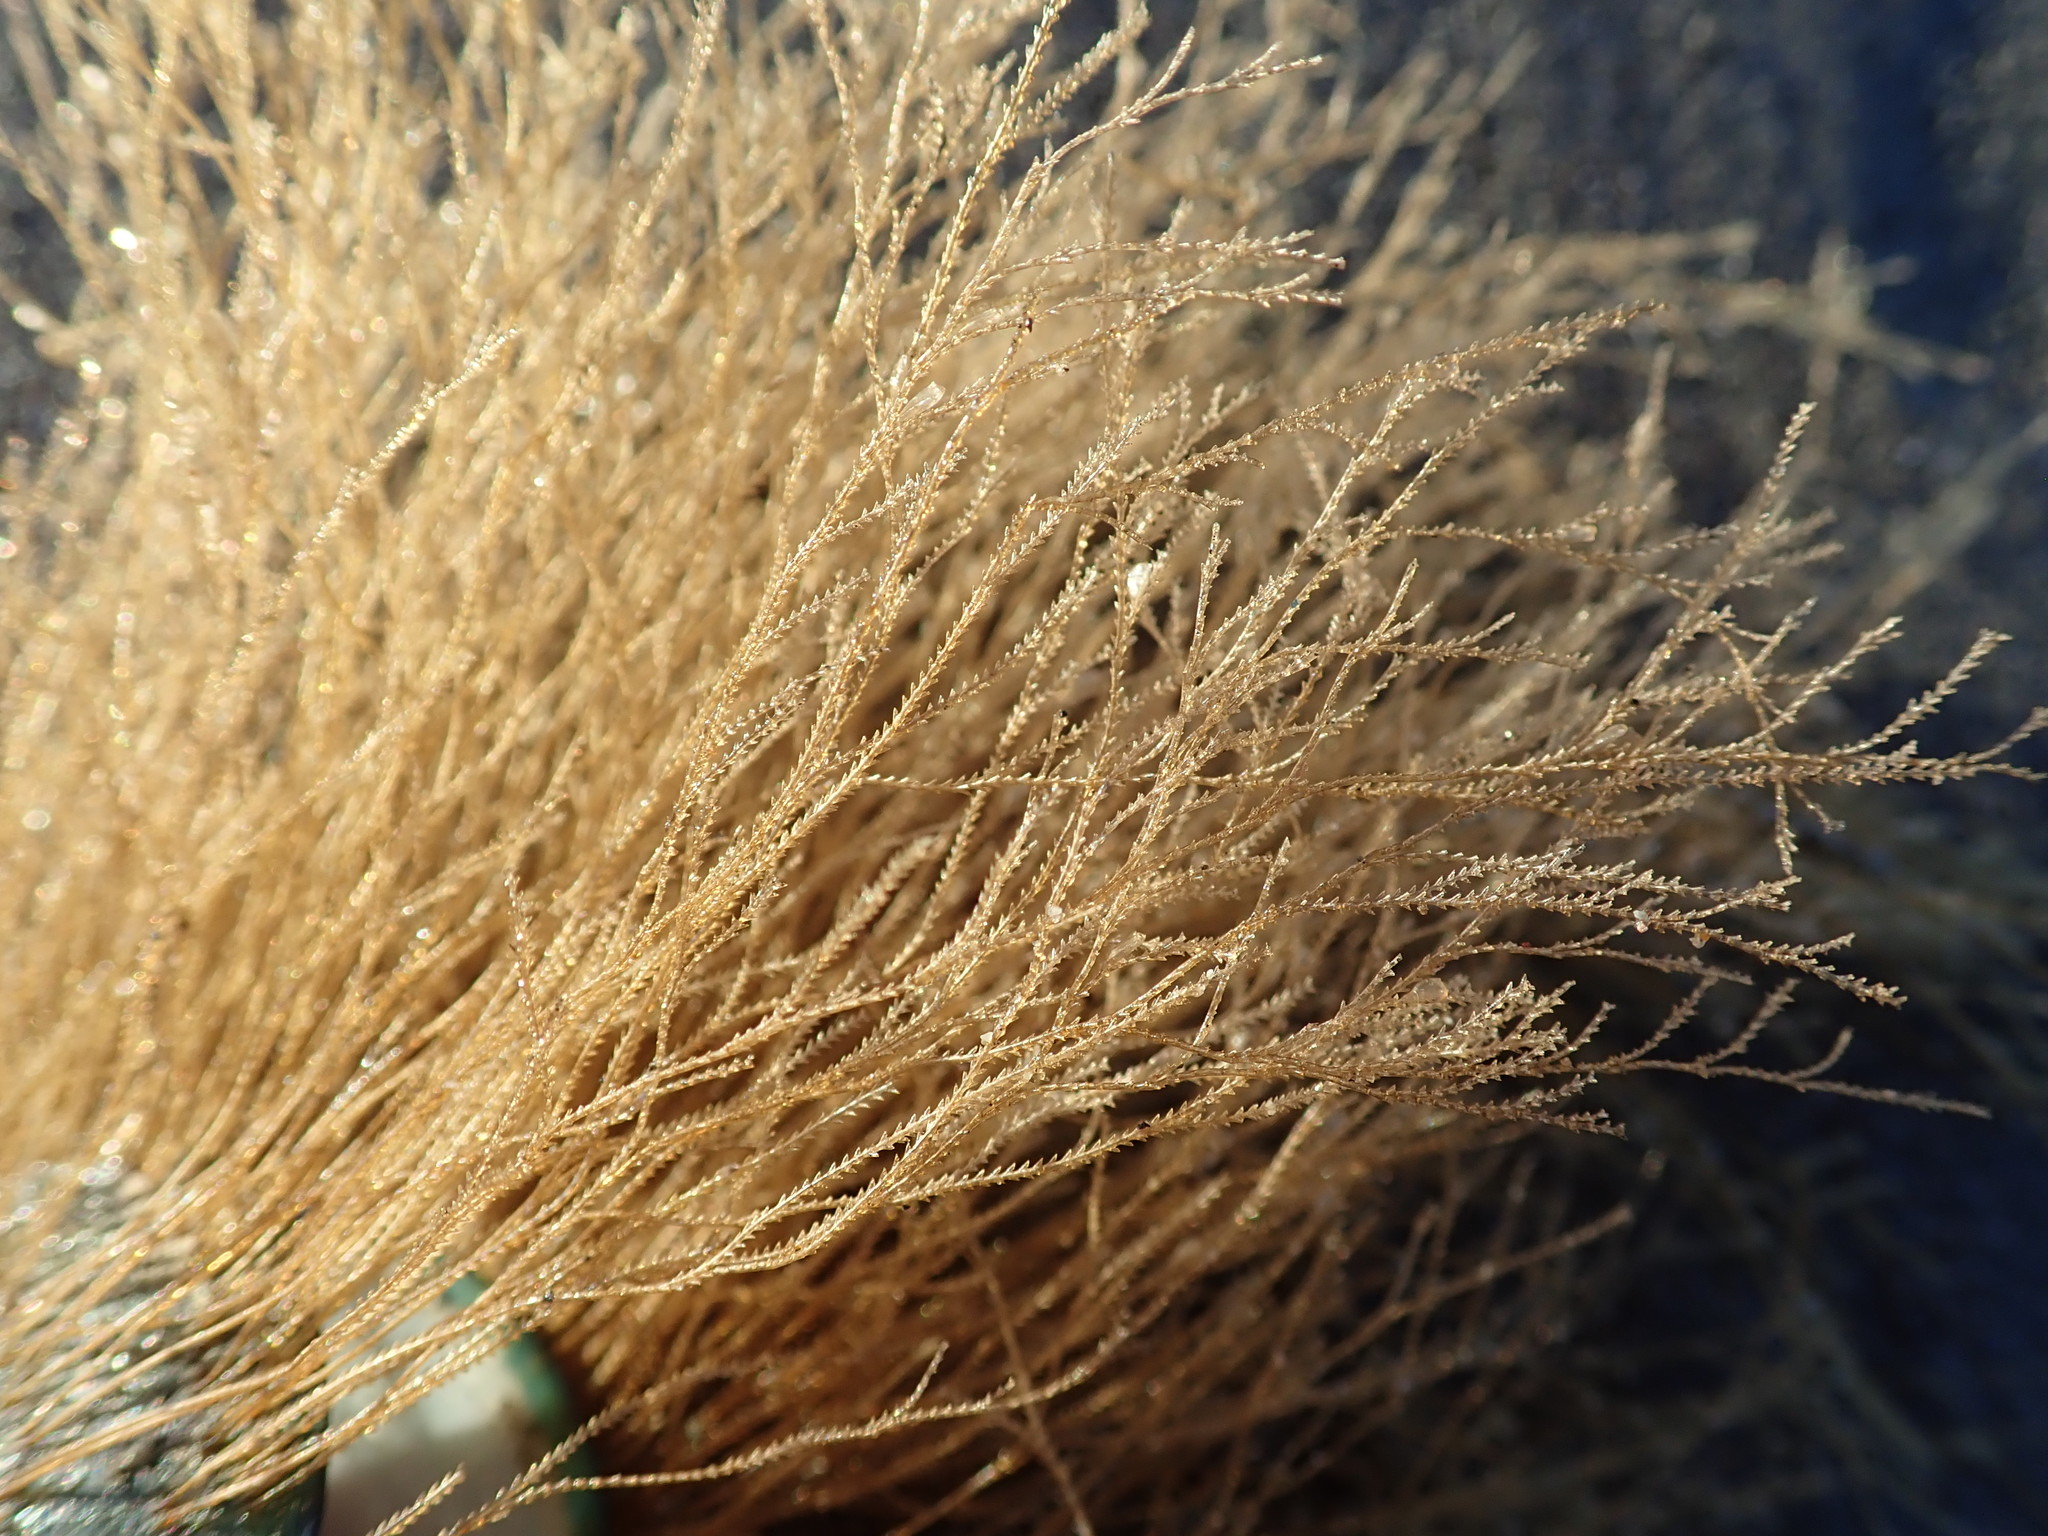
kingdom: Animalia
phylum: Cnidaria
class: Hydrozoa
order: Leptothecata
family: Sertulariidae
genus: Amphisbetia
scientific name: Amphisbetia bispinosa
